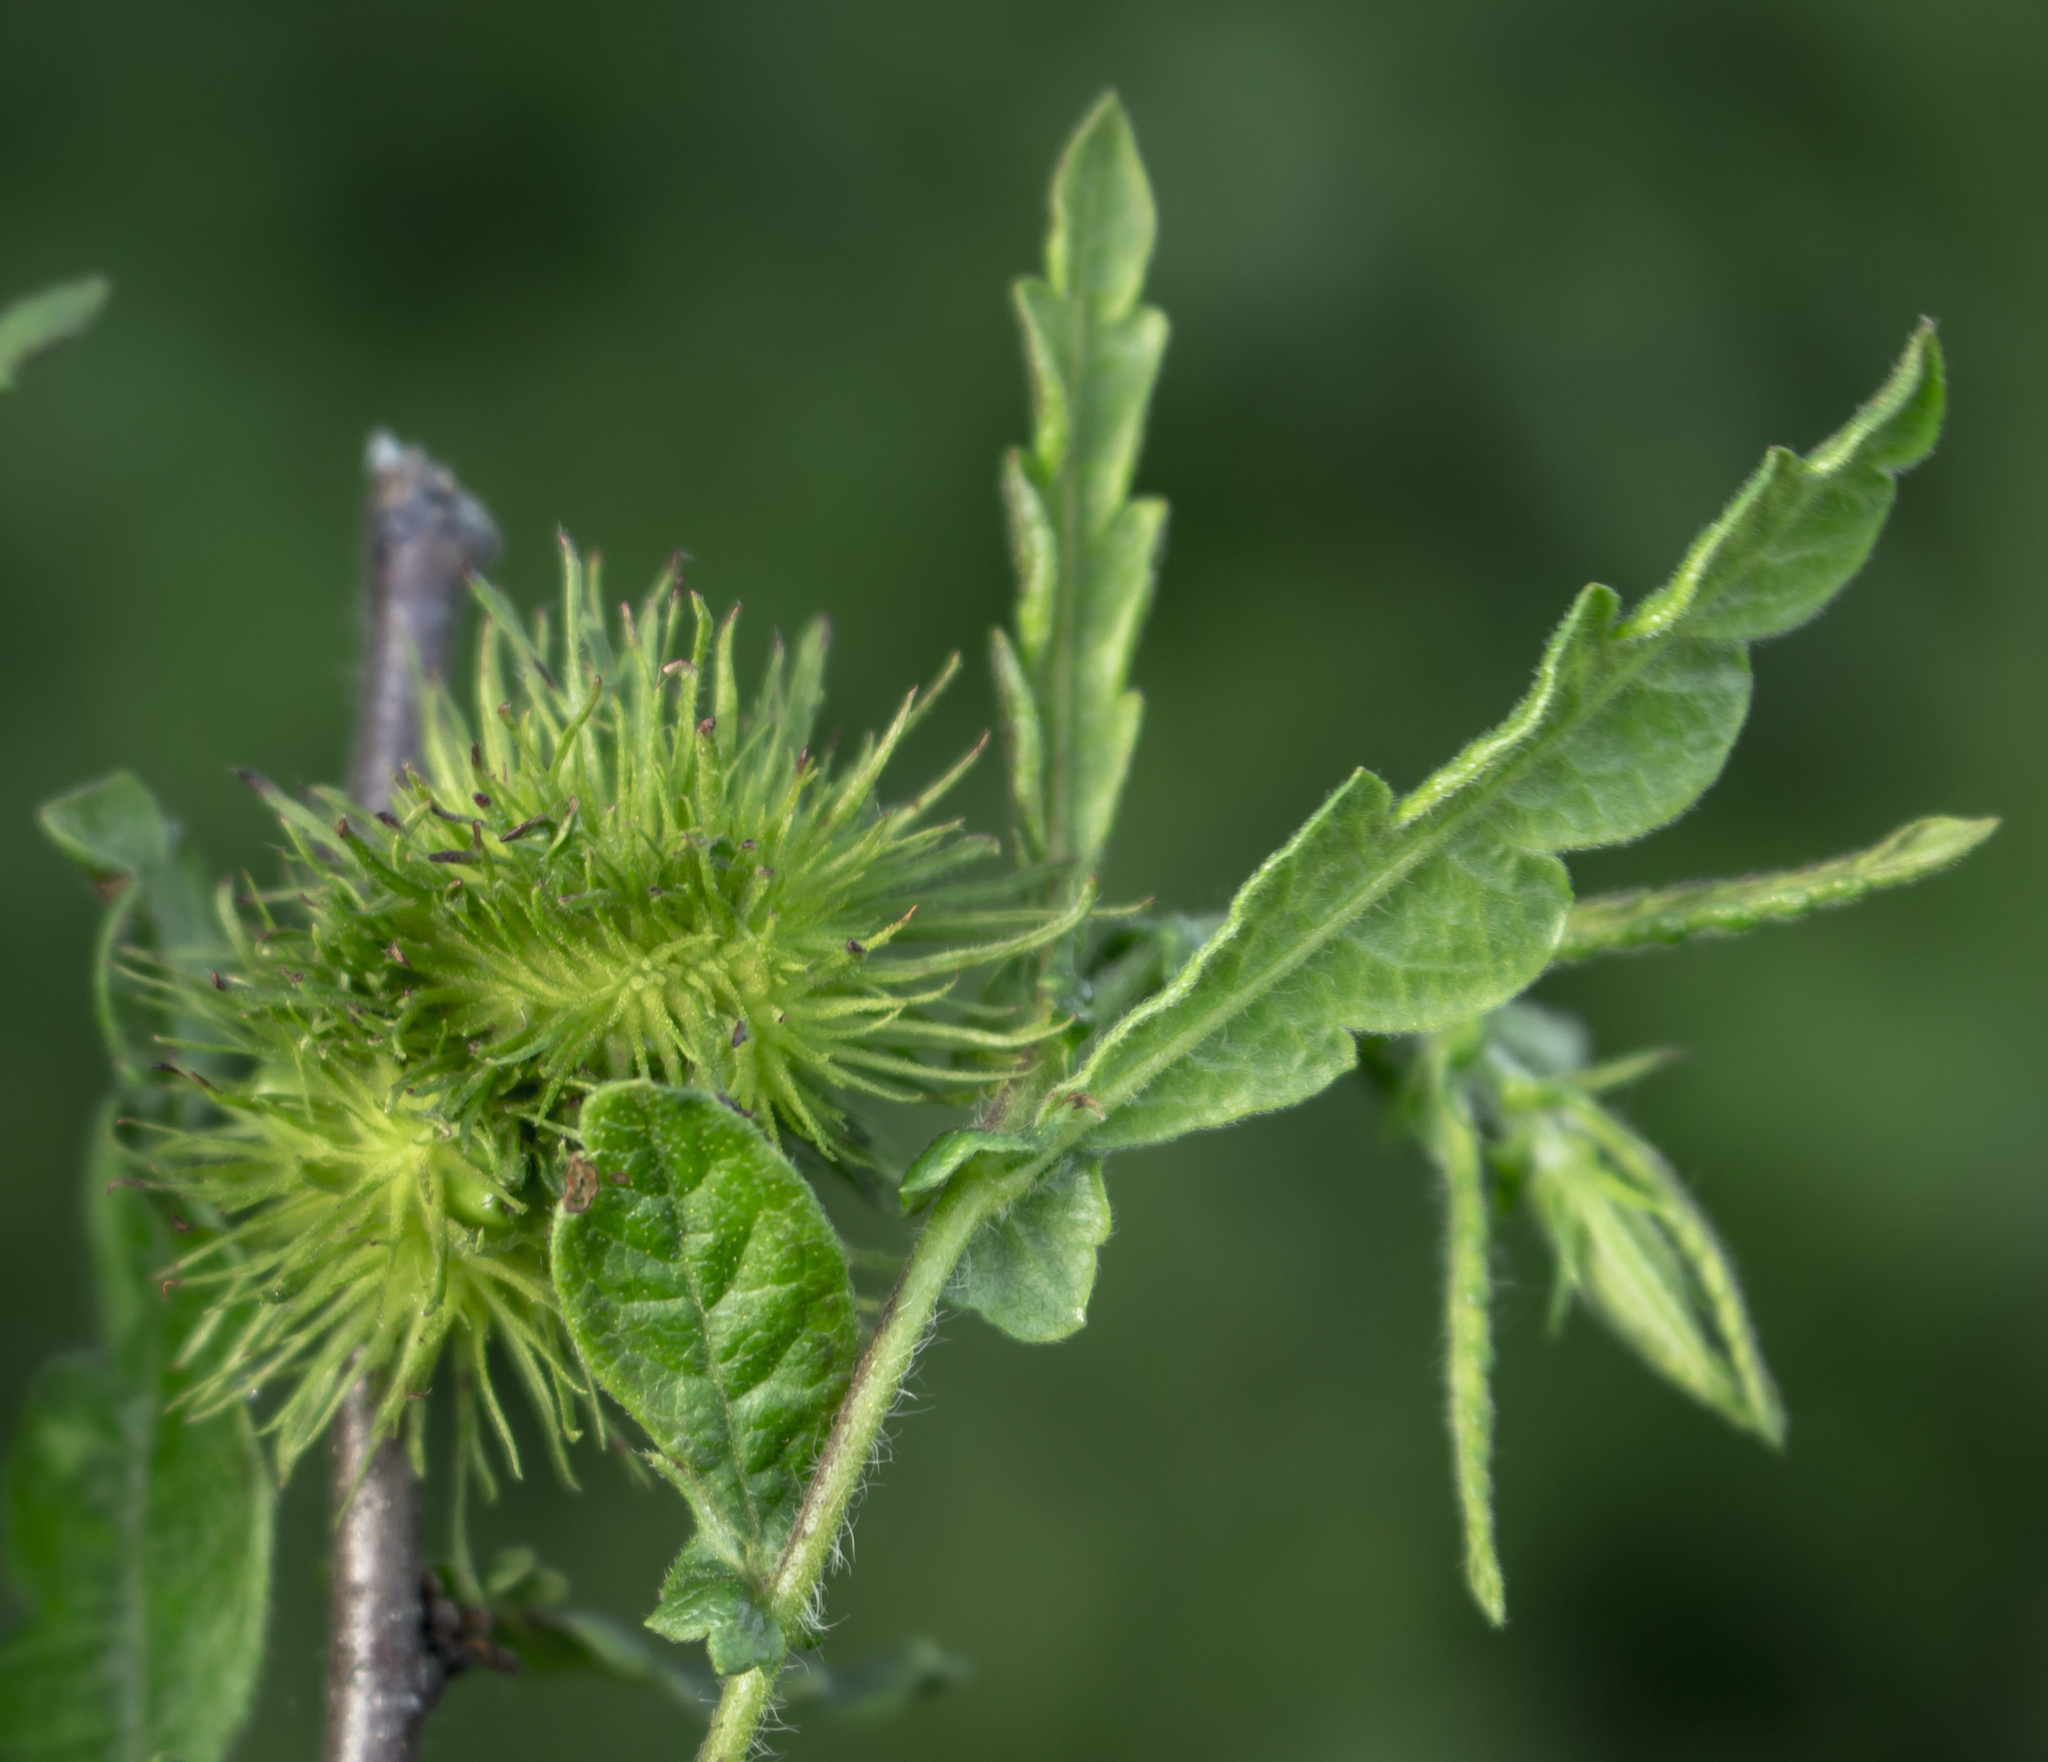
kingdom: Plantae
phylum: Tracheophyta
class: Magnoliopsida
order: Fagales
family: Myricaceae
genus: Comptonia
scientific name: Comptonia peregrina
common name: Sweet-fern
